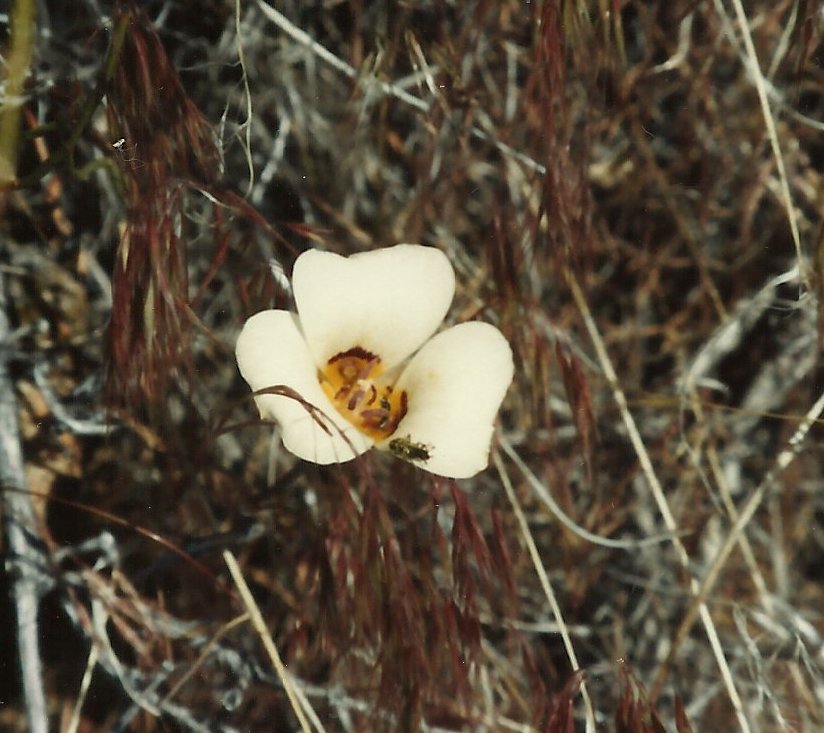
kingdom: Plantae
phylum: Tracheophyta
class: Liliopsida
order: Liliales
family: Liliaceae
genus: Calochortus
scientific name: Calochortus bruneaunis
